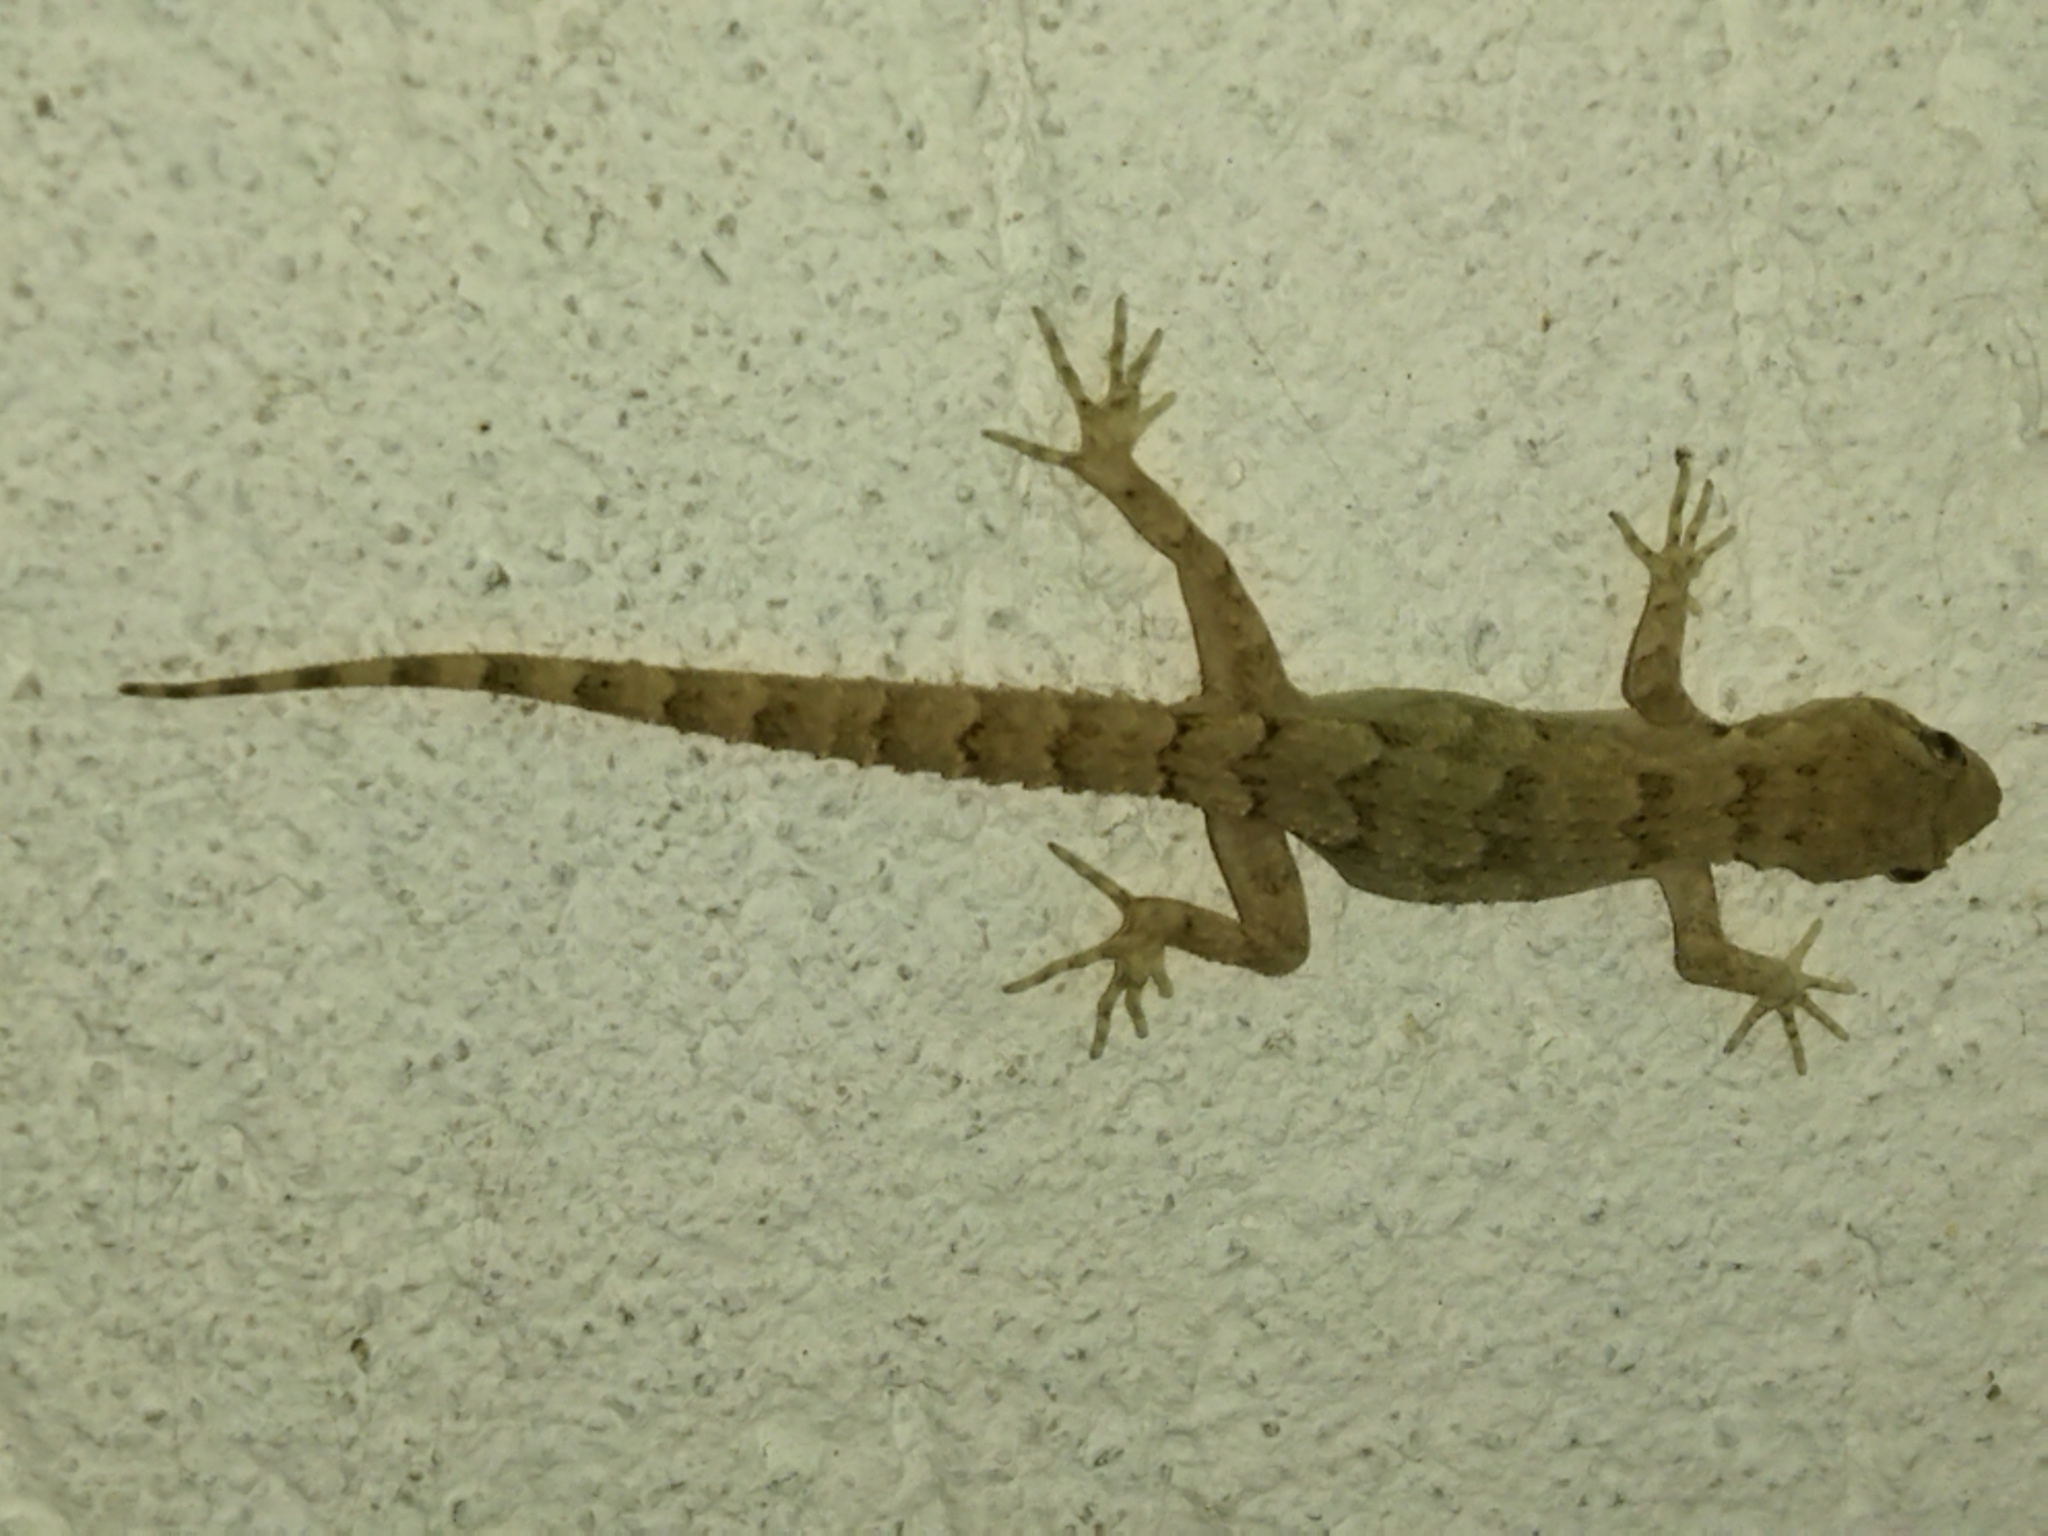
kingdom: Animalia
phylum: Chordata
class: Squamata
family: Gekkonidae
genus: Mediodactylus
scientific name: Mediodactylus kotschyi
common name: Kotschy's gecko
